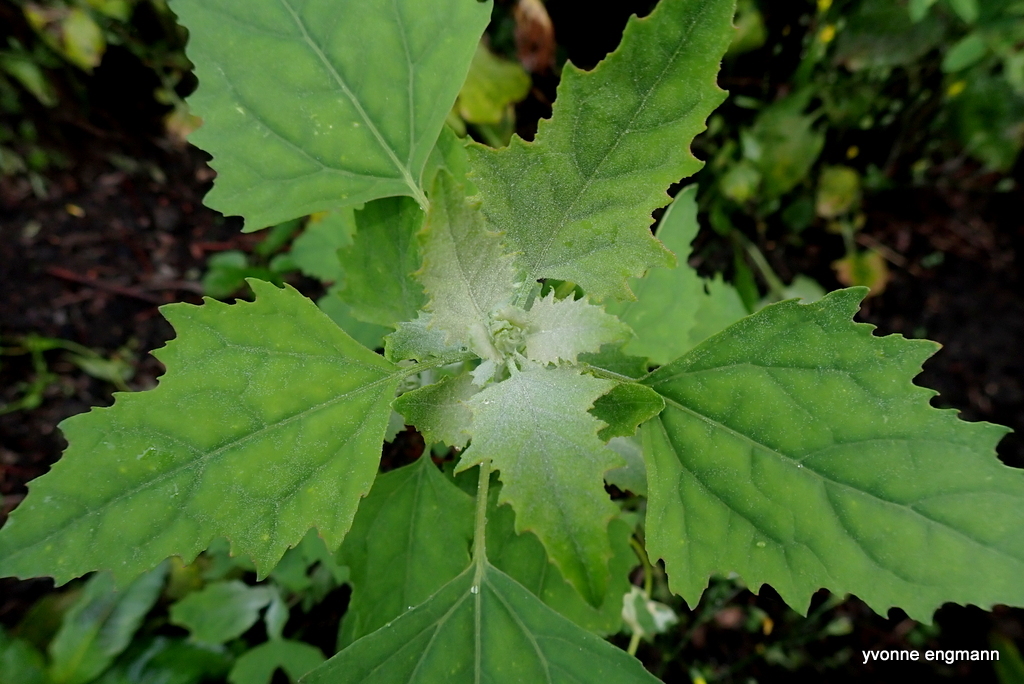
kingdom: Plantae
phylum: Tracheophyta
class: Magnoliopsida
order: Caryophyllales
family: Amaranthaceae
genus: Chenopodium
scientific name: Chenopodium album
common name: Fat-hen
